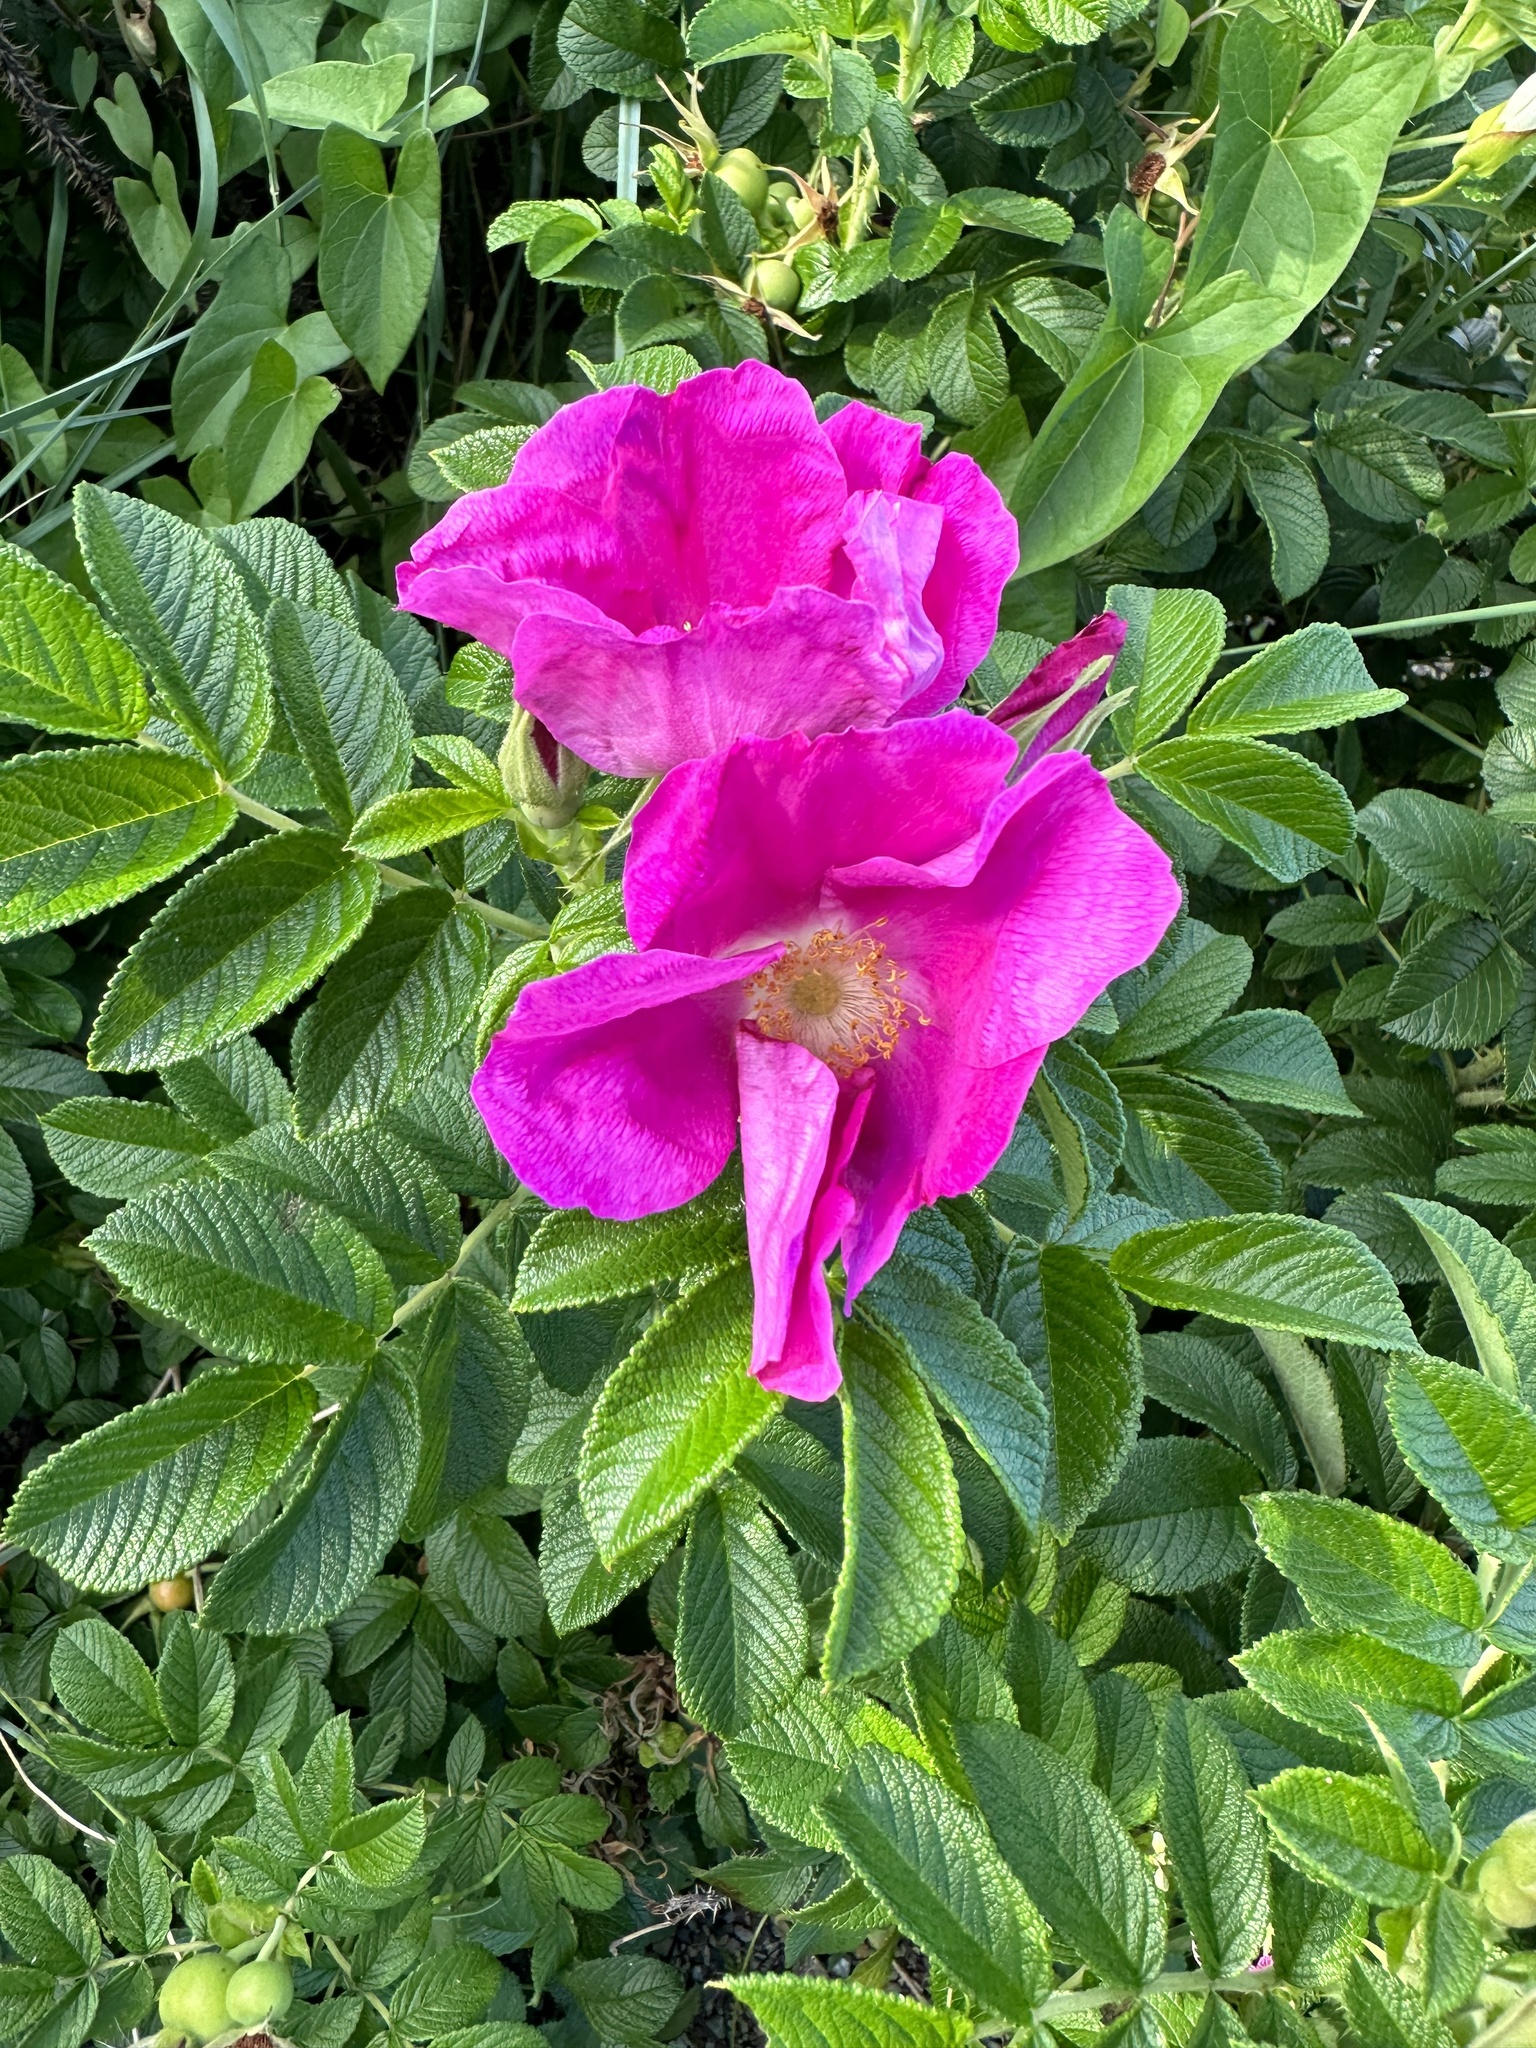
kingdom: Plantae
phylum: Tracheophyta
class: Magnoliopsida
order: Rosales
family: Rosaceae
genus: Rosa
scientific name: Rosa rugosa
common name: Japanese rose
